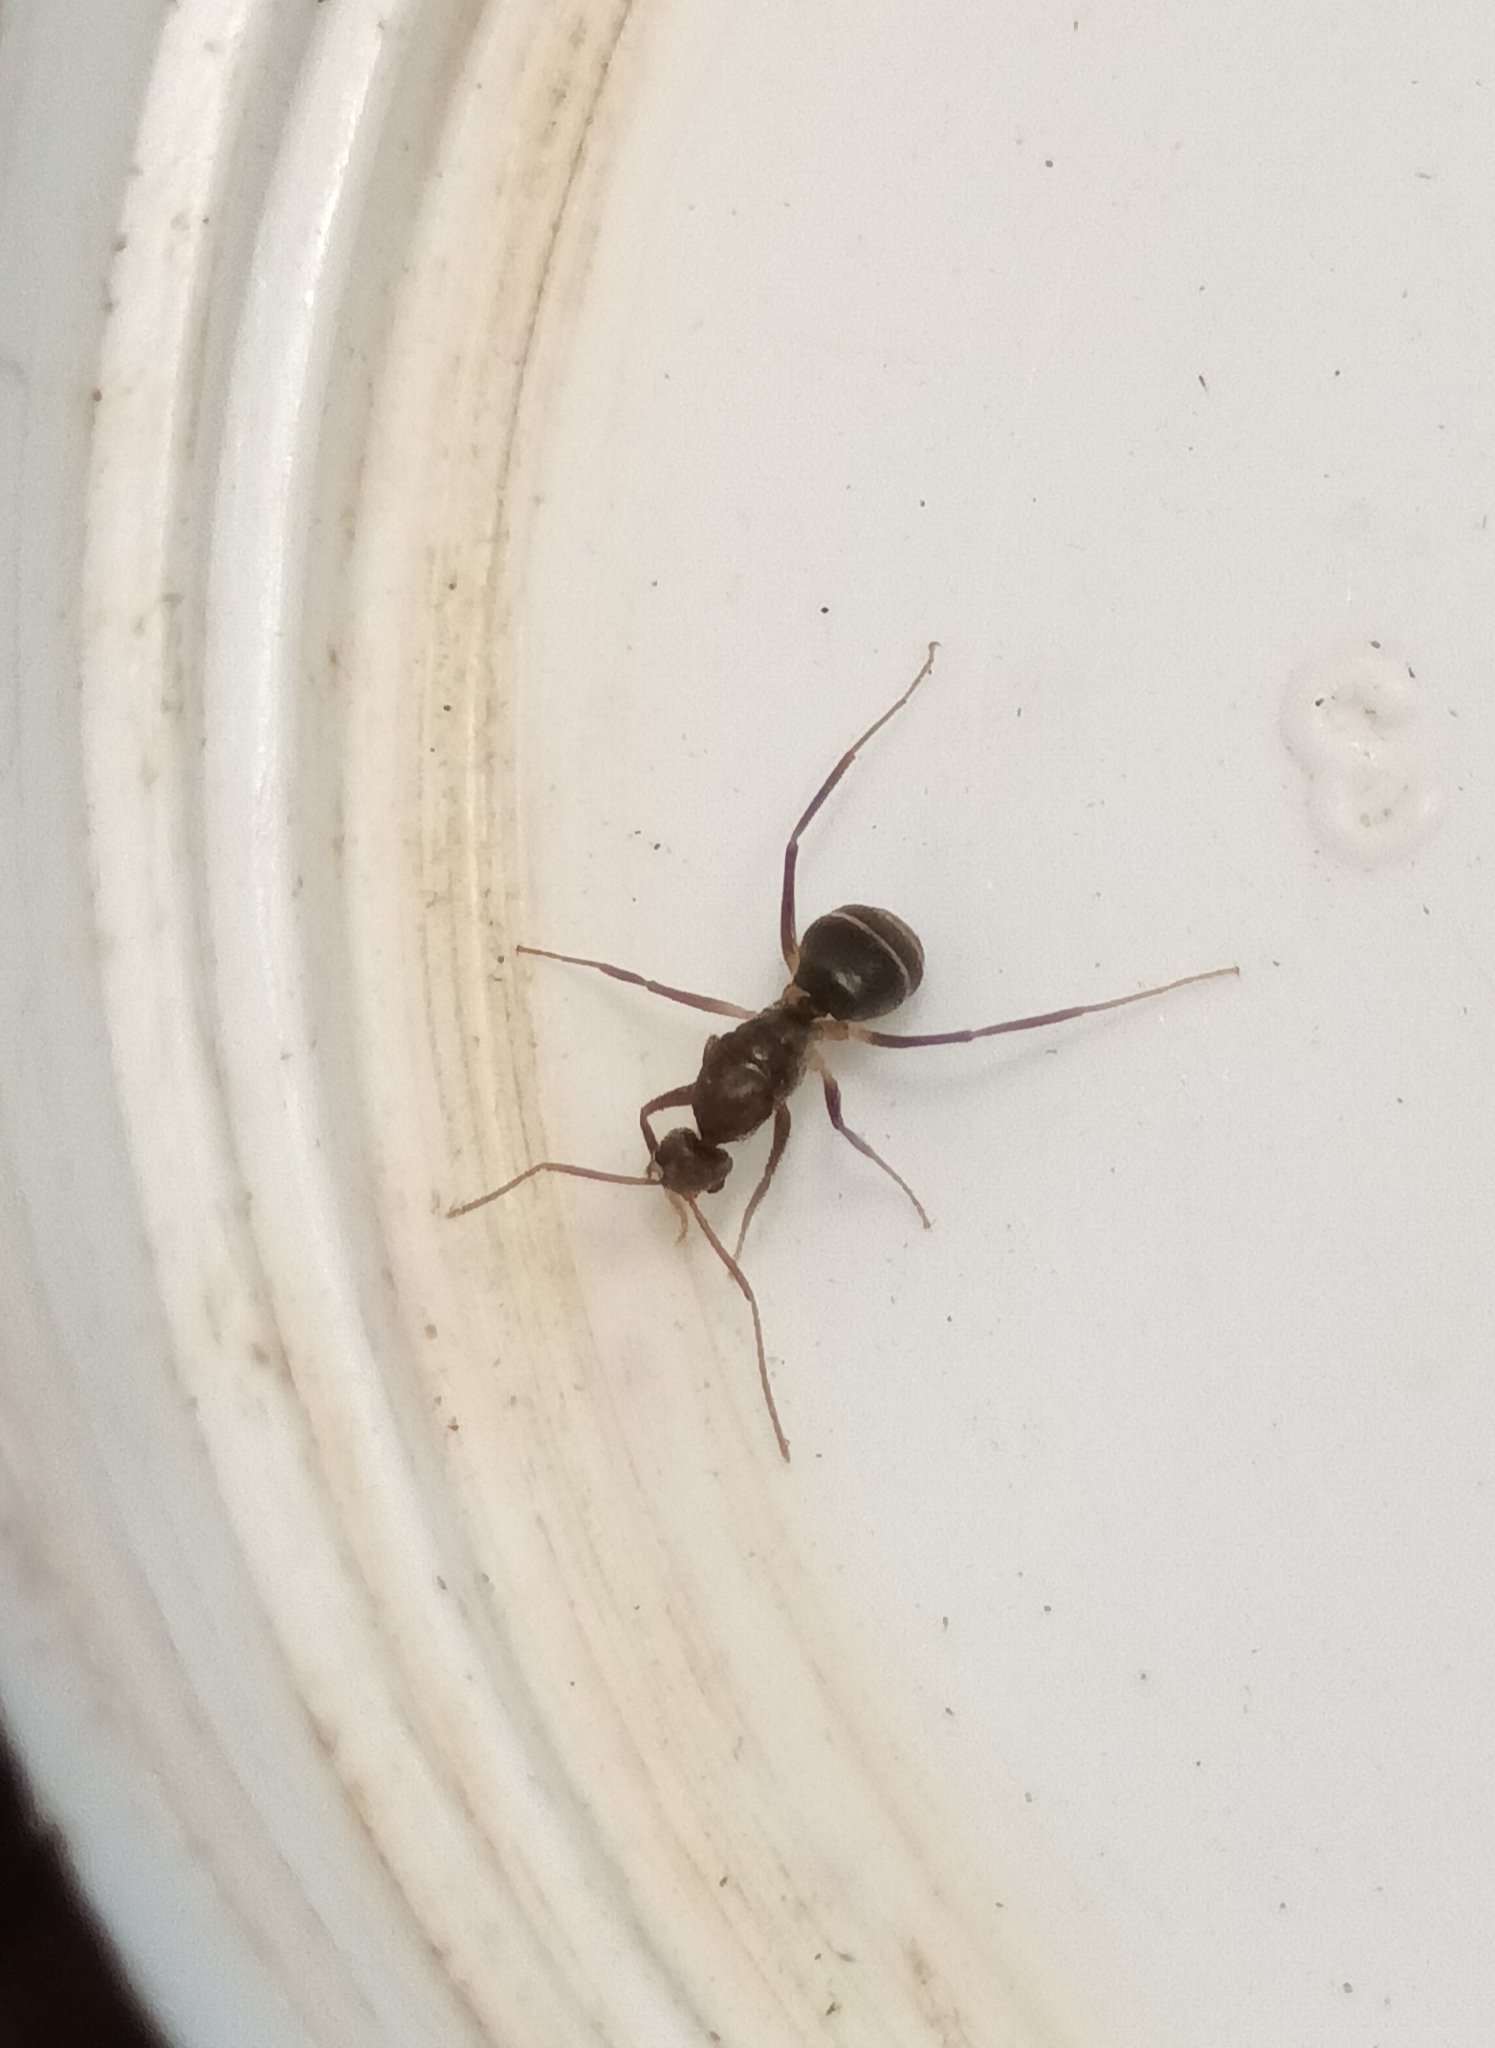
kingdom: Animalia
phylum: Arthropoda
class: Insecta
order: Hymenoptera
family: Formicidae
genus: Paratrechina
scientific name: Paratrechina longicornis
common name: Longhorned crazy ant
